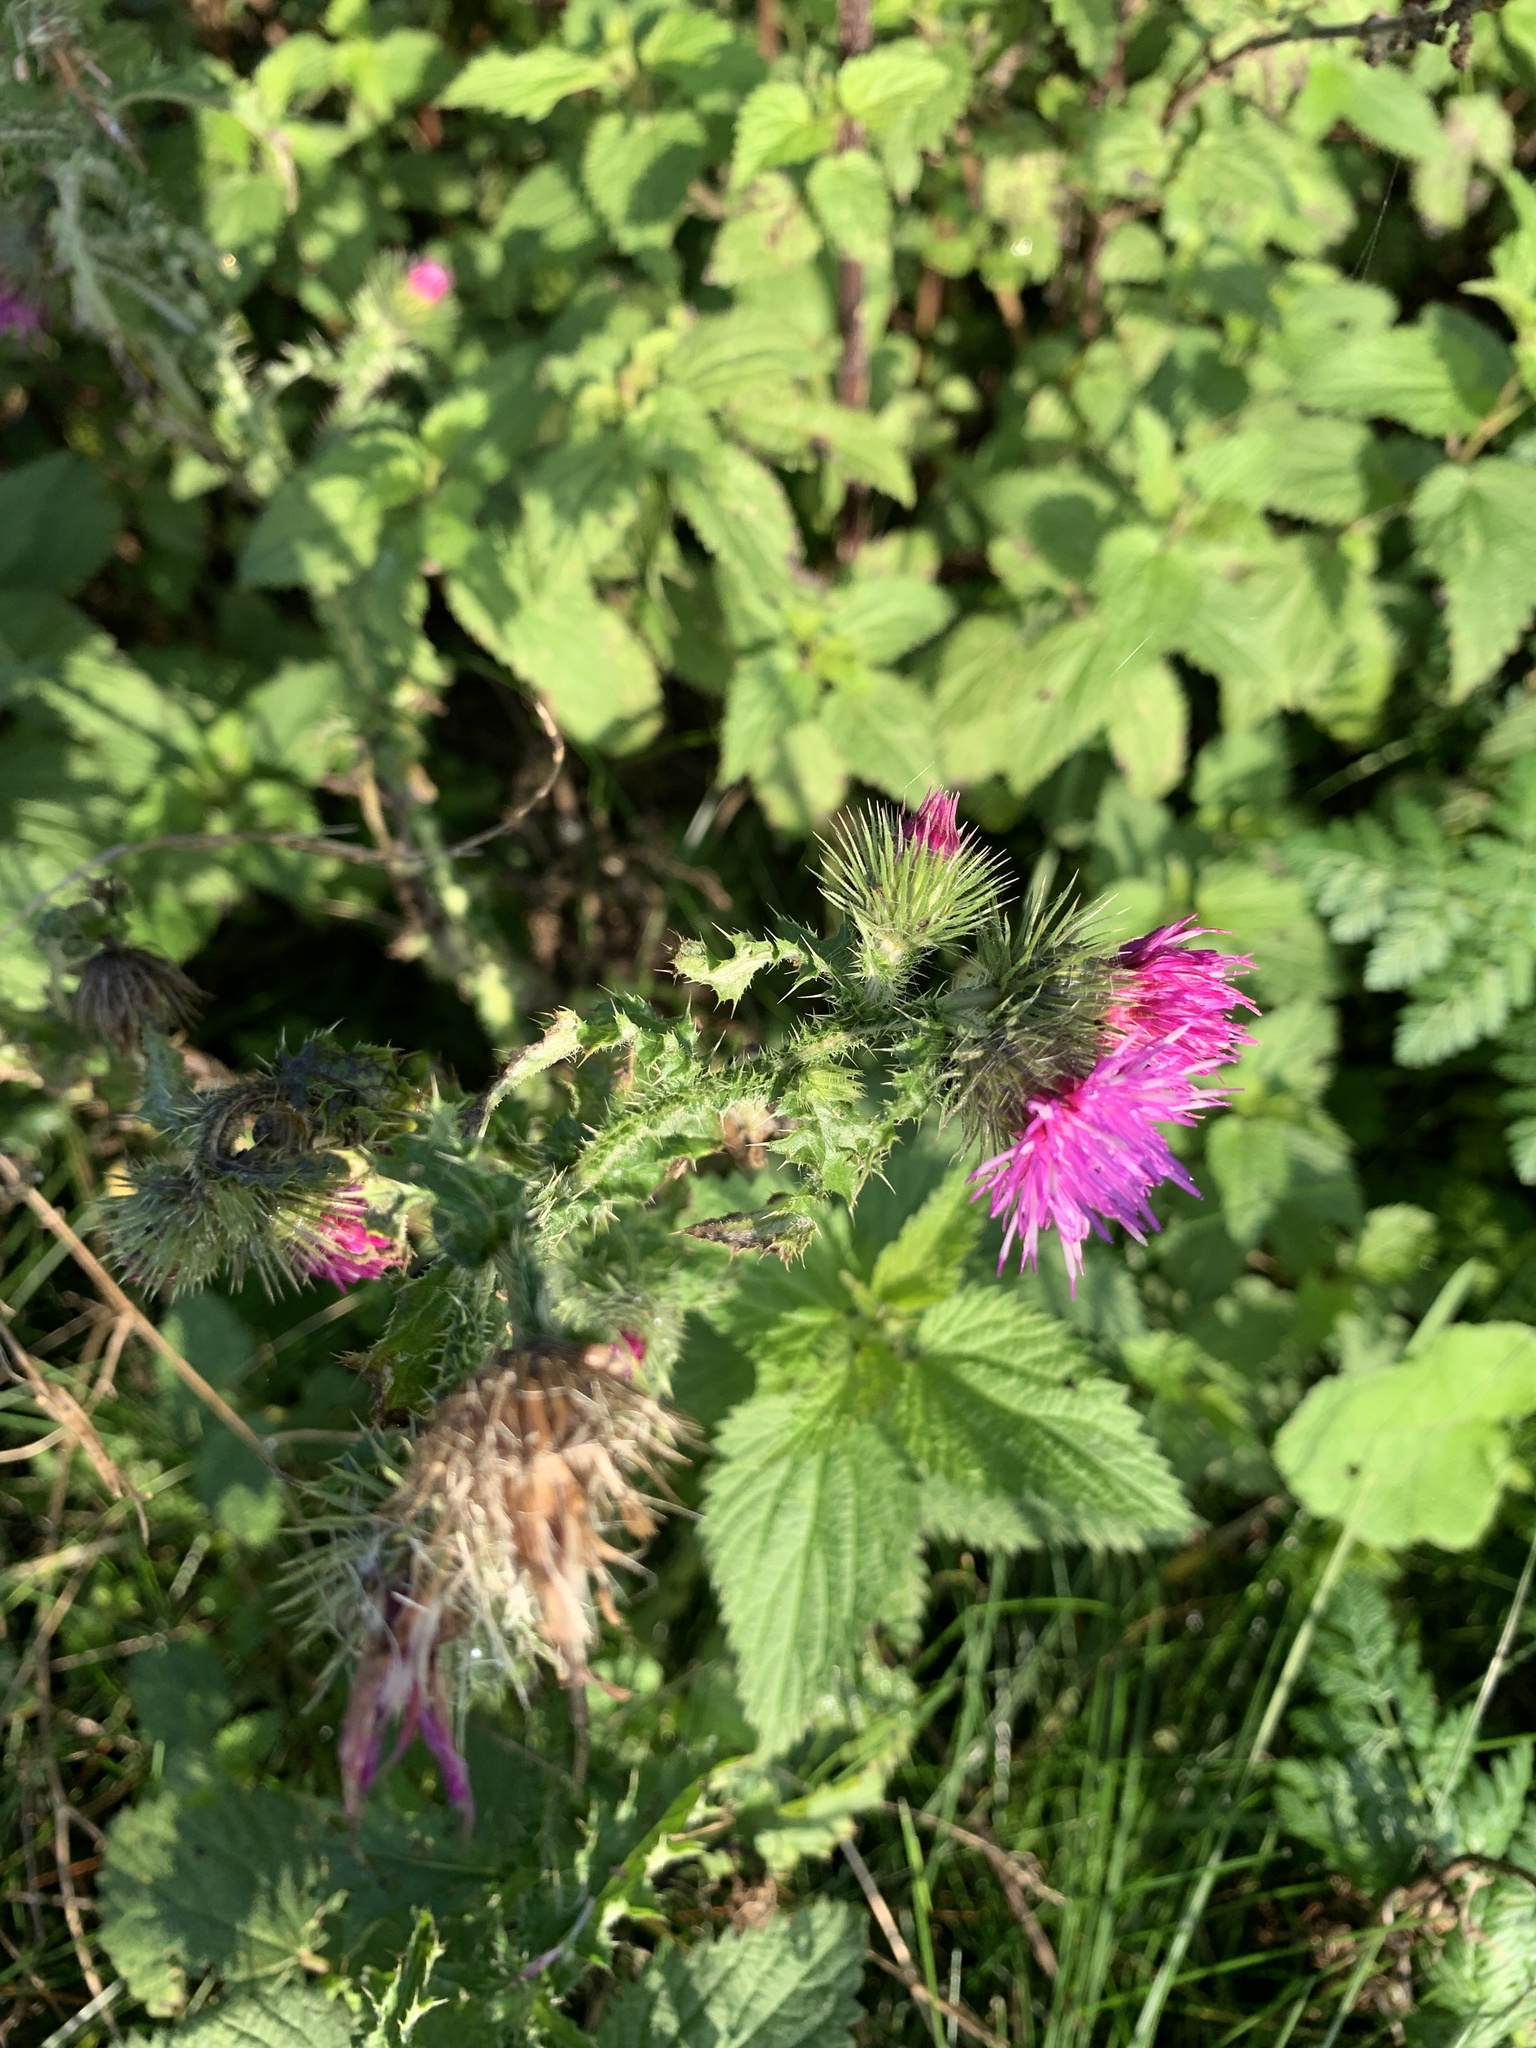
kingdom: Plantae
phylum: Tracheophyta
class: Magnoliopsida
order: Asterales
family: Asteraceae
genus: Carduus
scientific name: Carduus crispus
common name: Welted thistle
